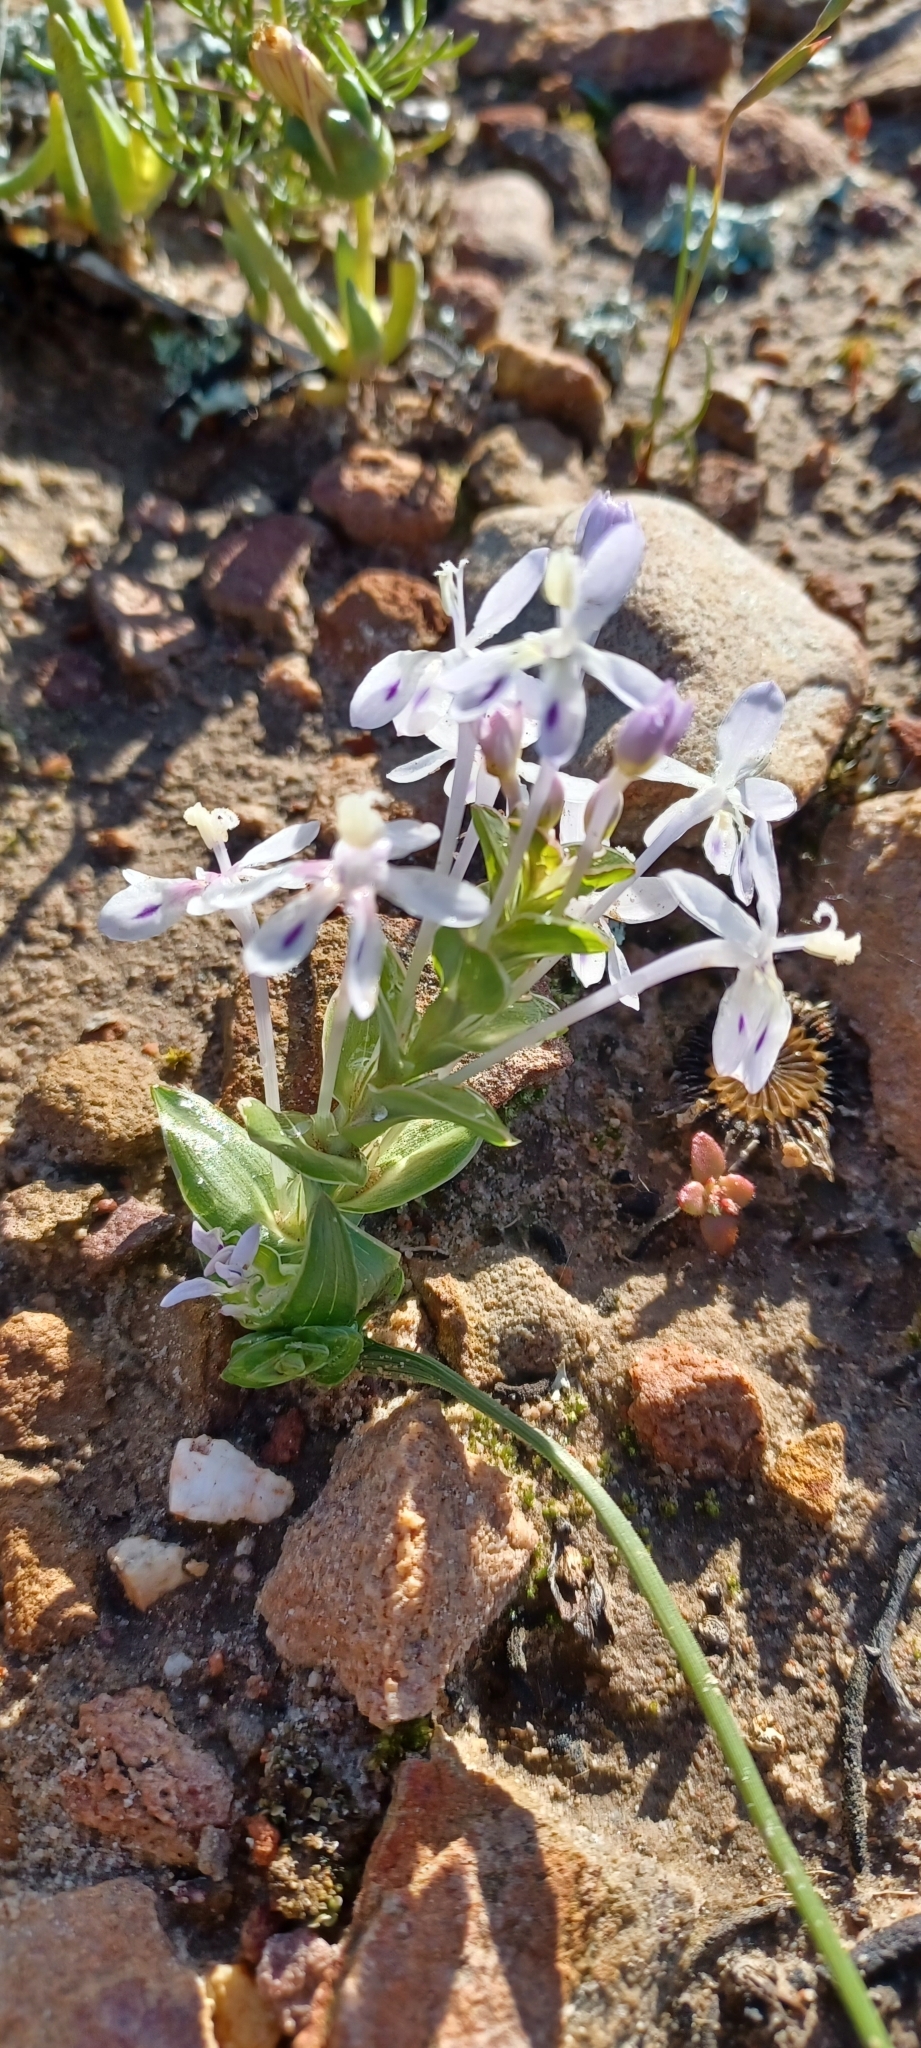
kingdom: Plantae
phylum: Tracheophyta
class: Liliopsida
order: Asparagales
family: Iridaceae
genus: Lapeirousia
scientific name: Lapeirousia pyramidalis
